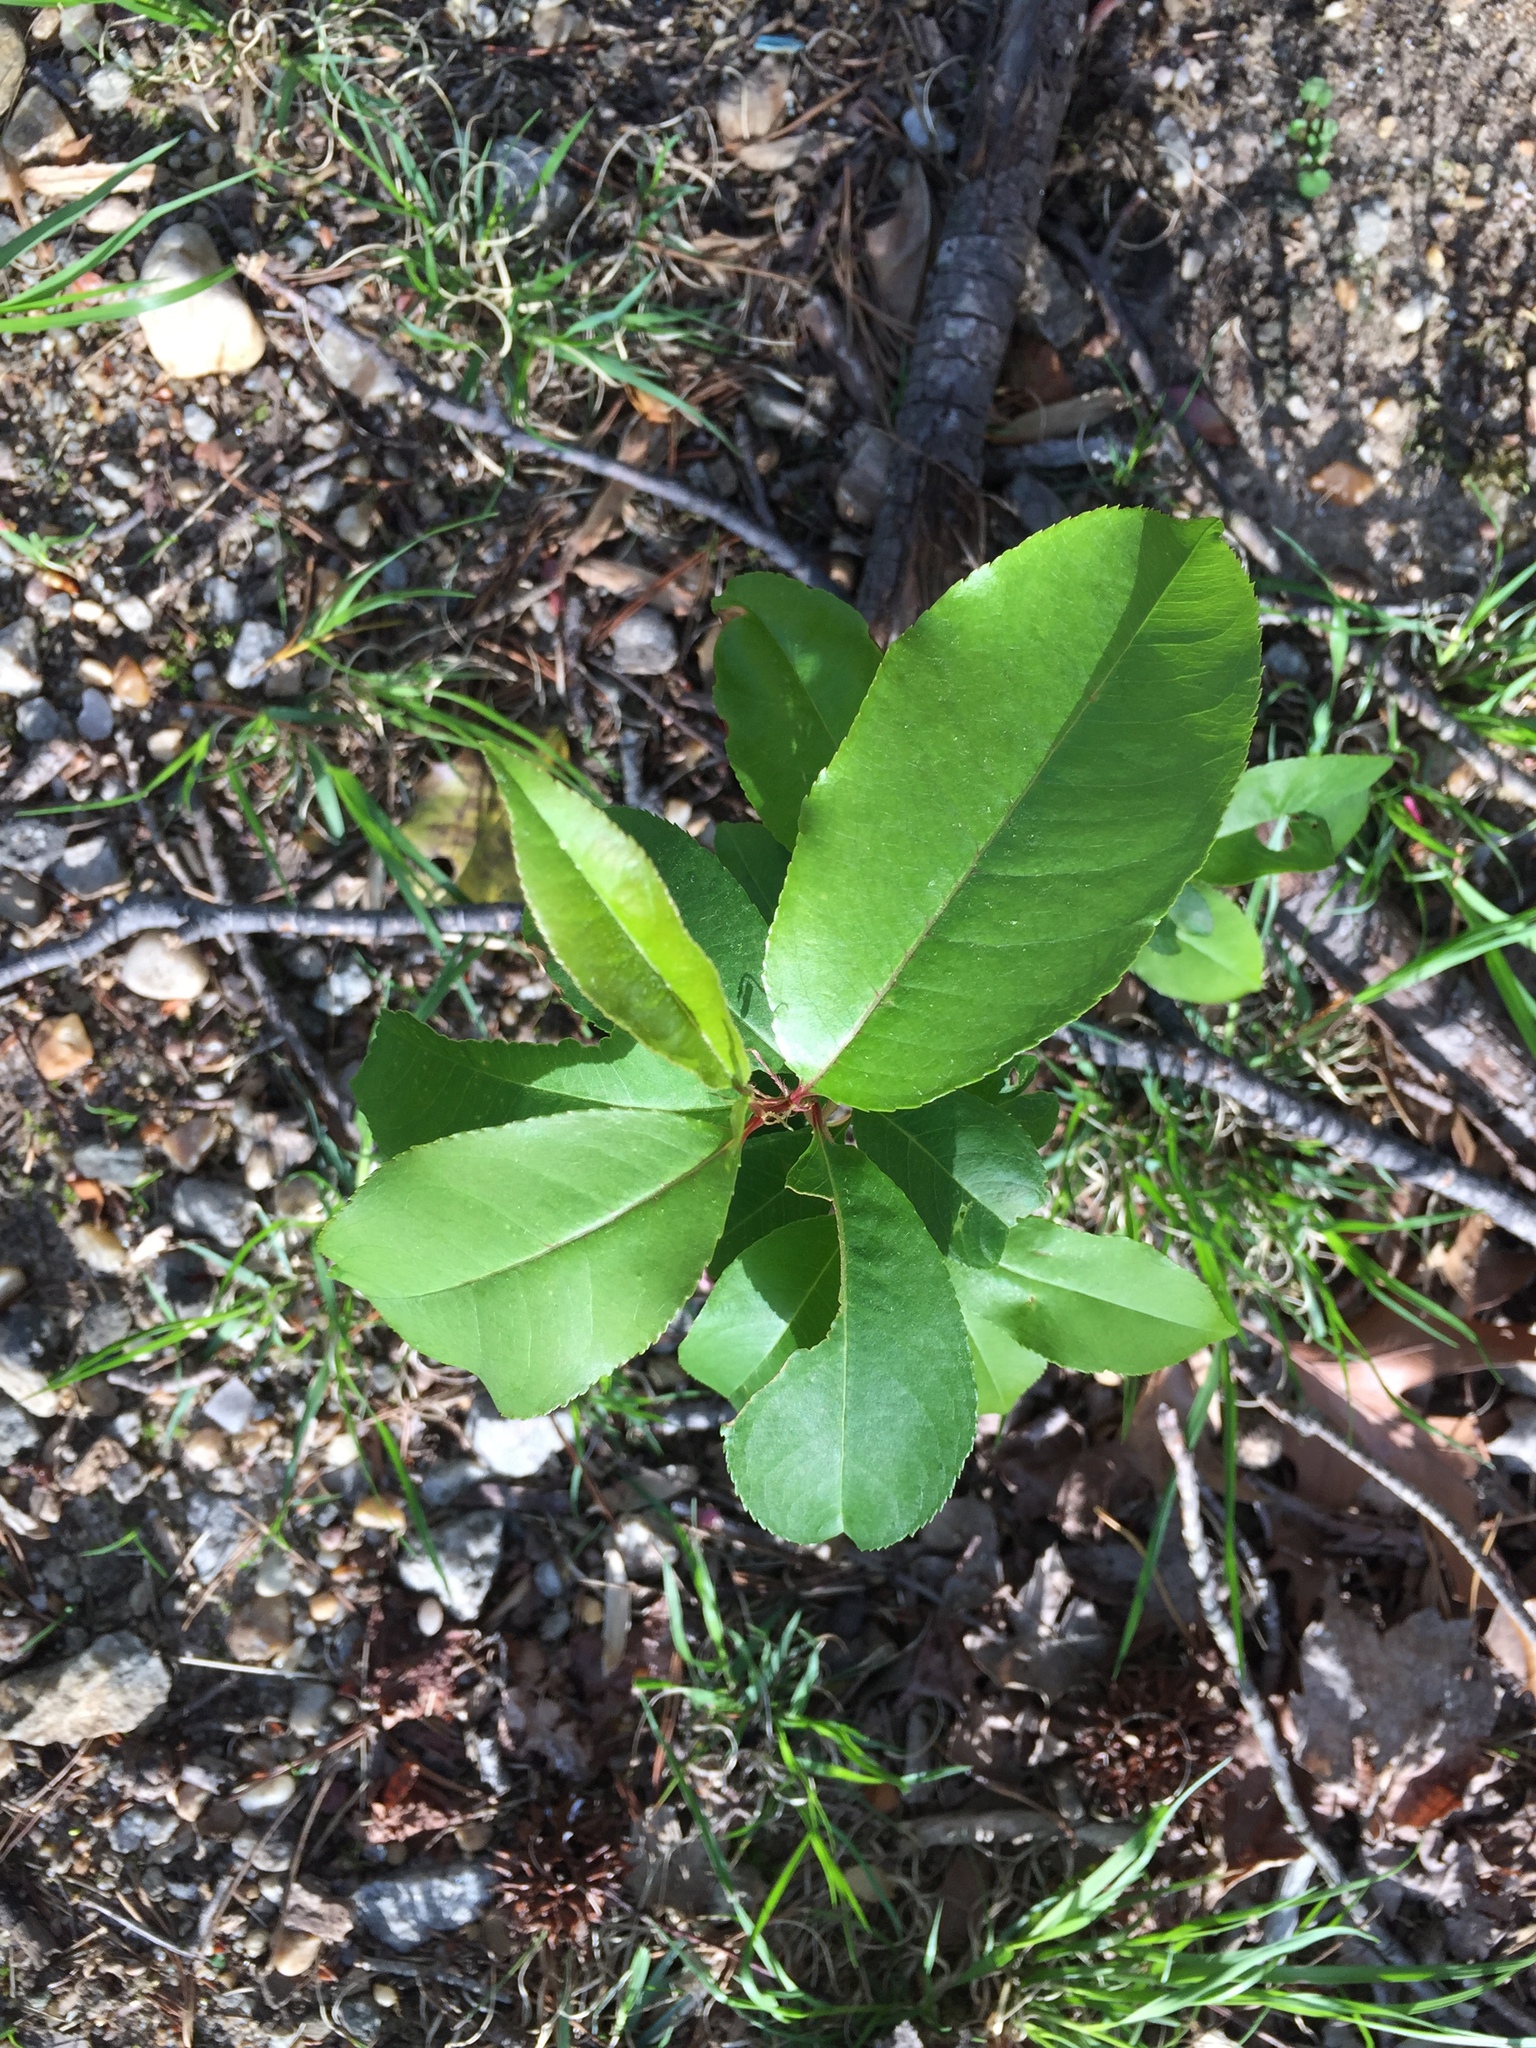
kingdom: Plantae
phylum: Tracheophyta
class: Magnoliopsida
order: Rosales
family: Rosaceae
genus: Prunus
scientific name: Prunus serotina
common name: Black cherry
